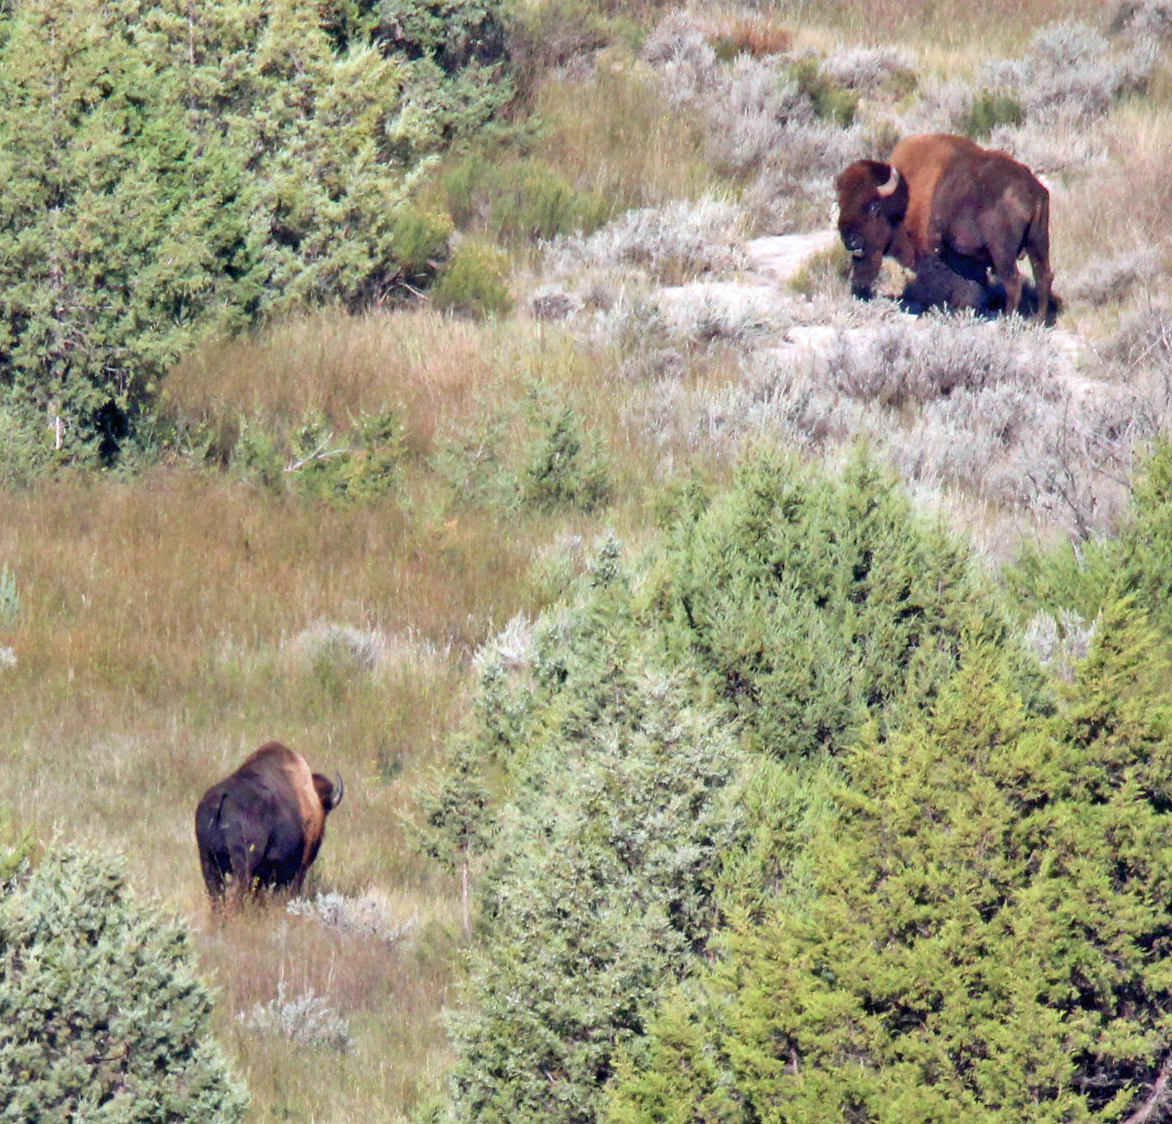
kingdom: Animalia
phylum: Chordata
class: Mammalia
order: Artiodactyla
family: Bovidae
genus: Bison
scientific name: Bison bison
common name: American bison
